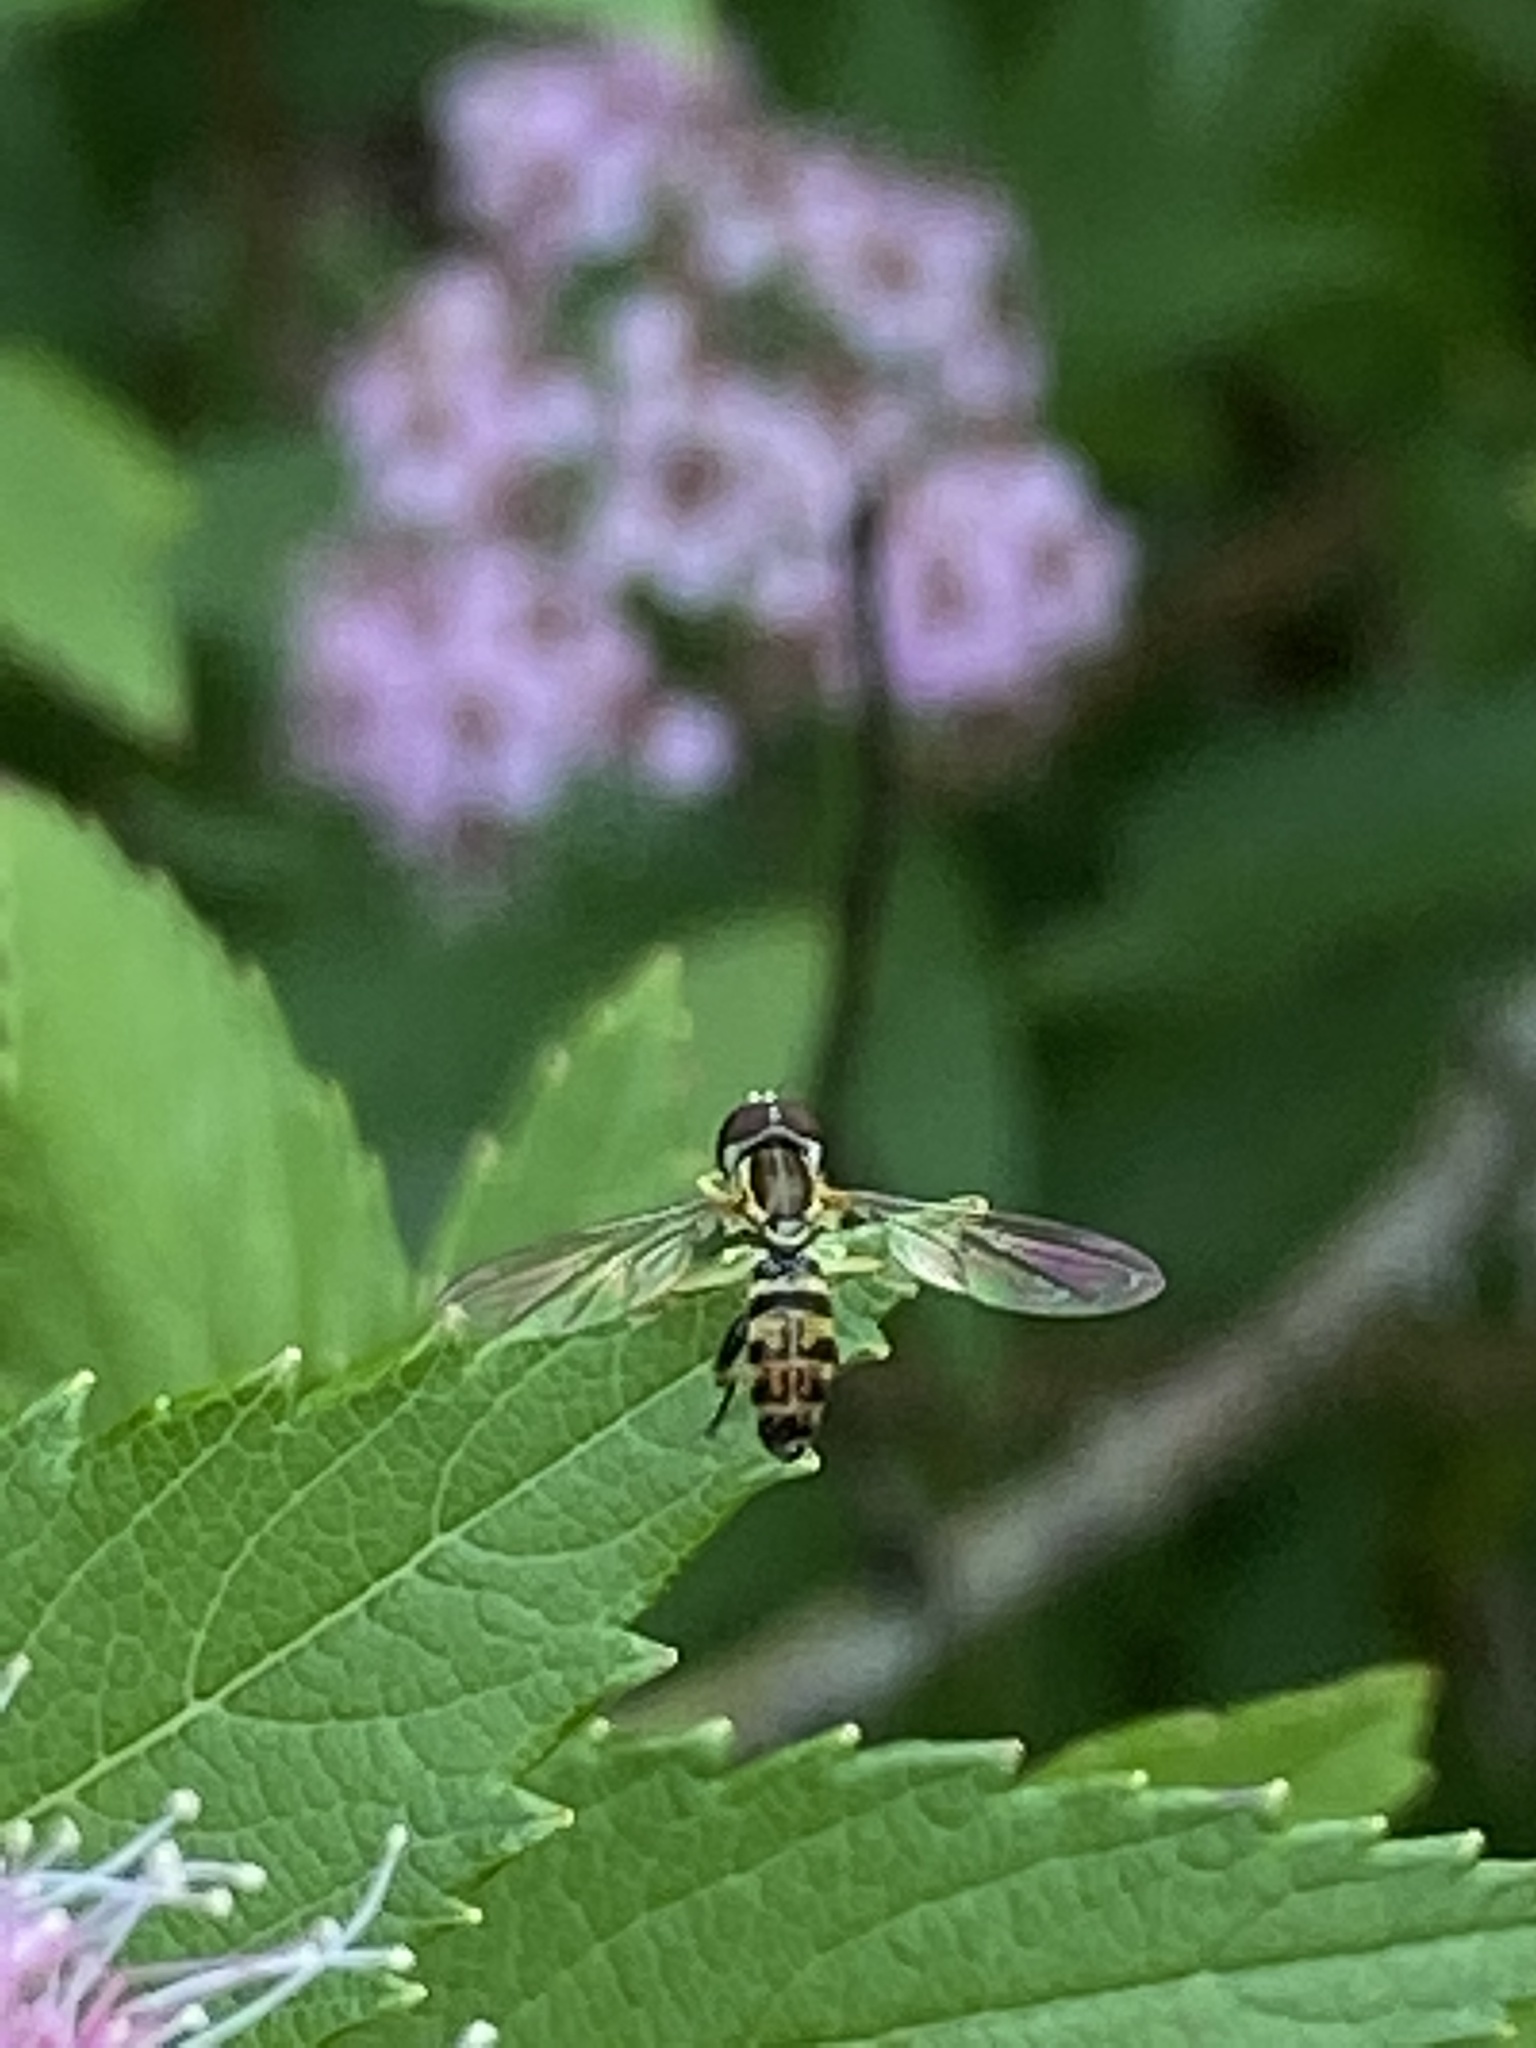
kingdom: Animalia
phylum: Arthropoda
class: Insecta
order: Diptera
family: Syrphidae
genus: Toxomerus
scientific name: Toxomerus geminatus
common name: Eastern calligrapher
